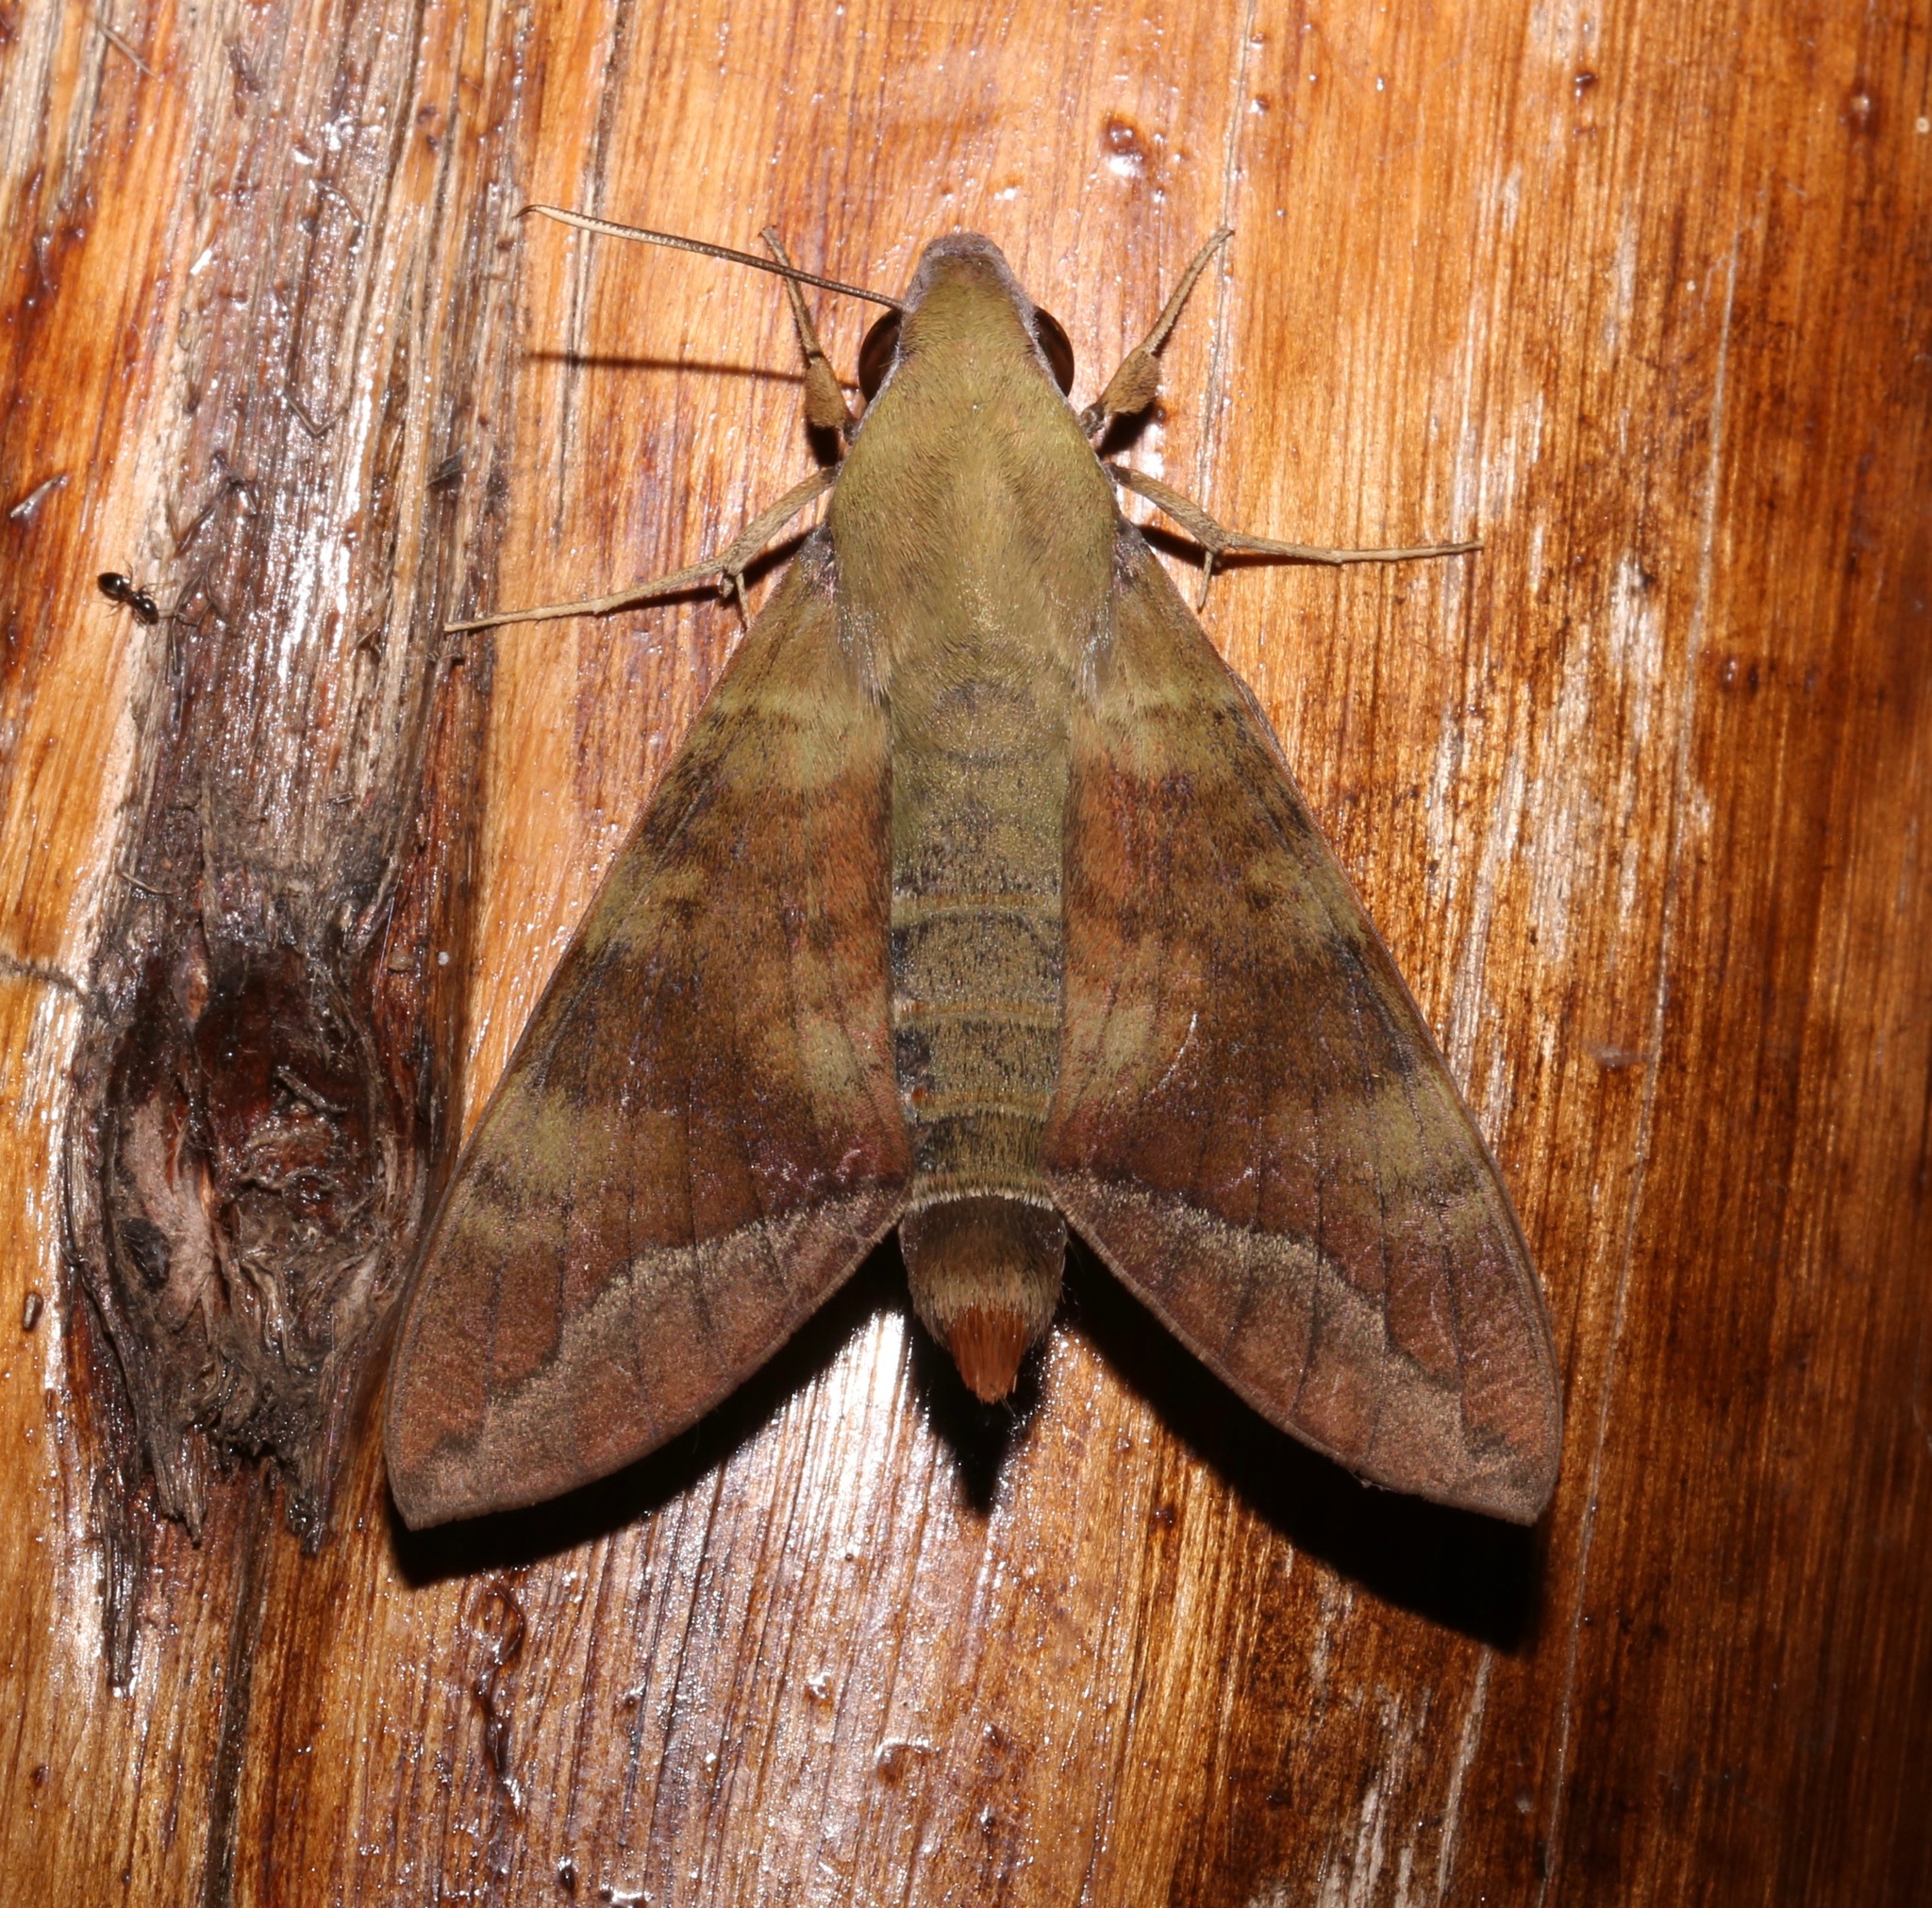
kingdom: Animalia
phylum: Arthropoda
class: Insecta
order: Lepidoptera
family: Sphingidae
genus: Nephele
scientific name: Nephele comma
